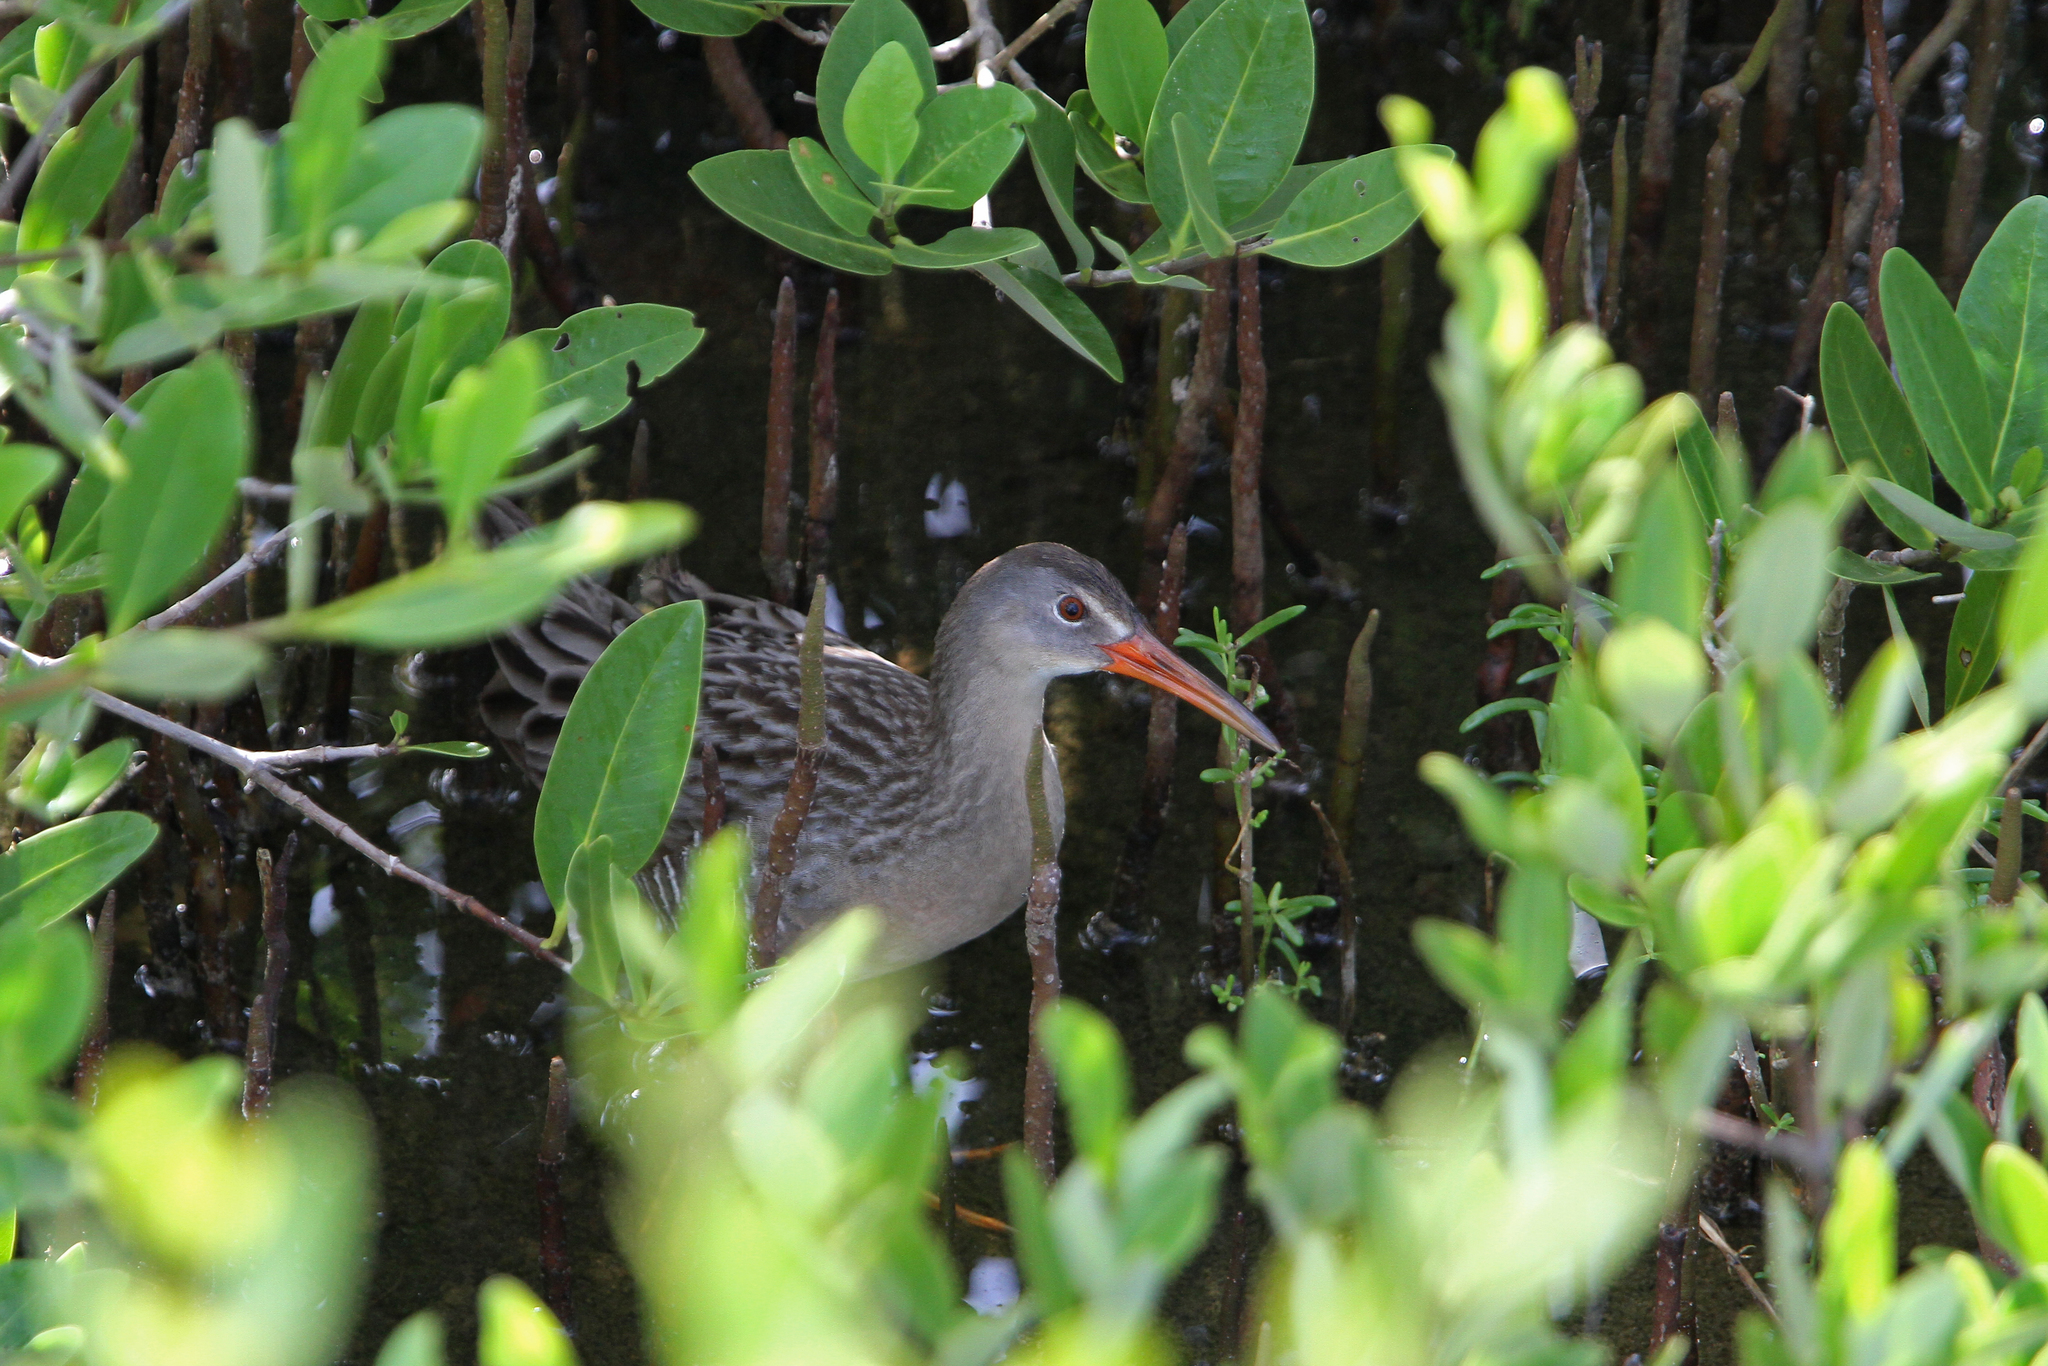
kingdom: Animalia
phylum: Chordata
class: Aves
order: Gruiformes
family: Rallidae
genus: Rallus
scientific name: Rallus crepitans
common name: Clapper rail
